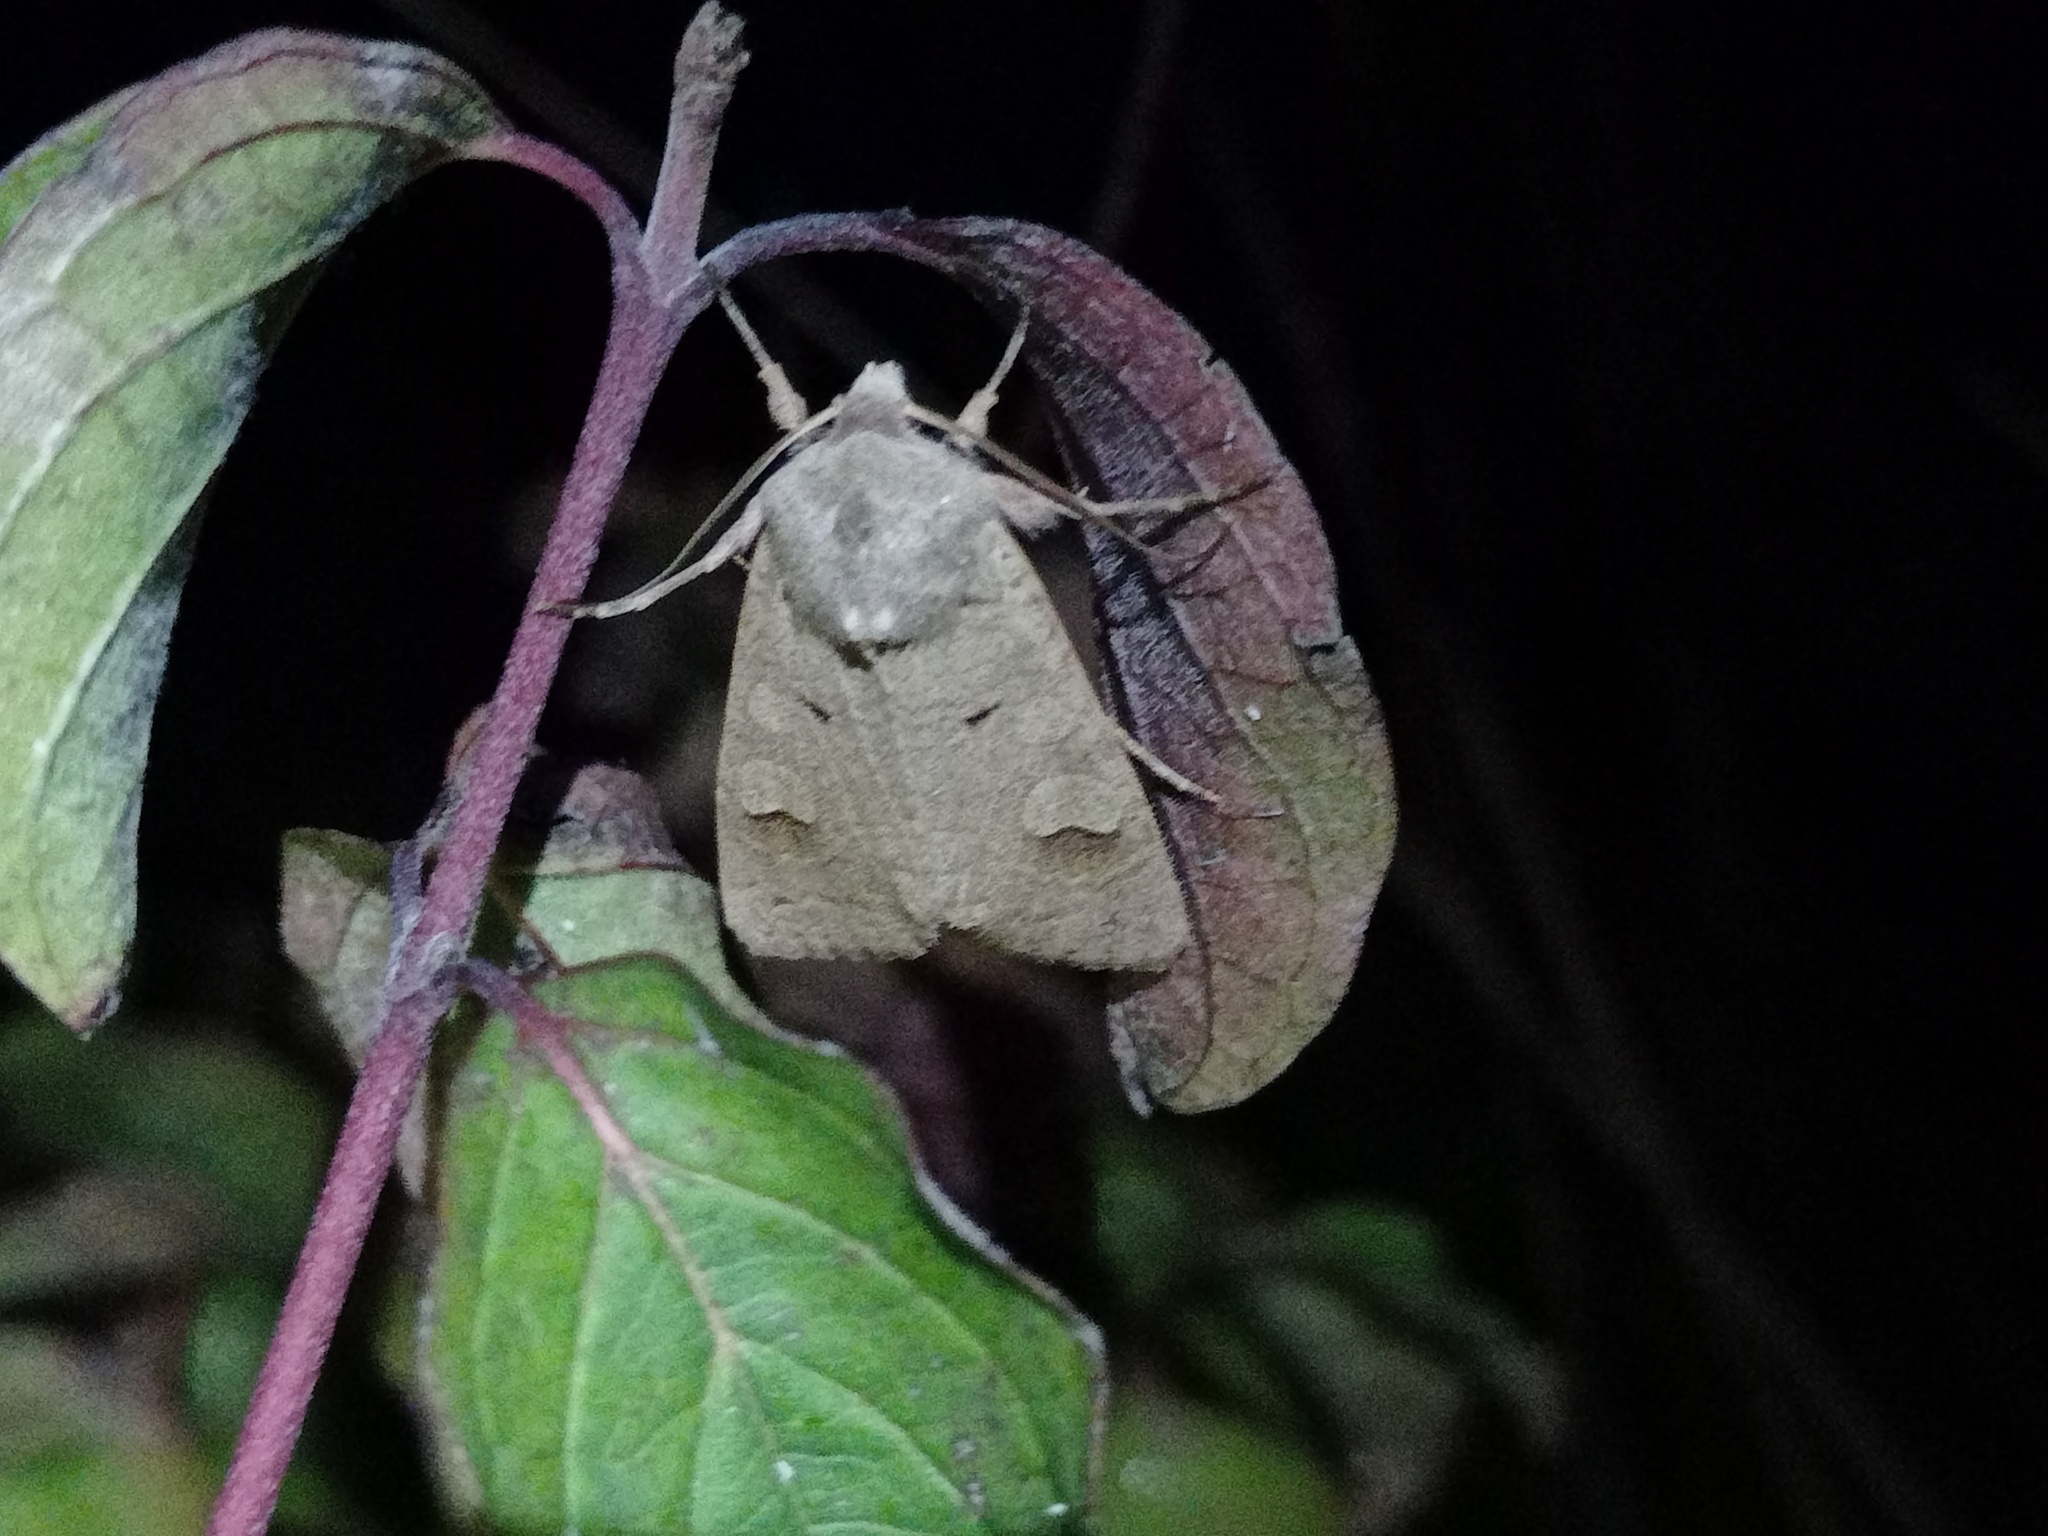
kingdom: Animalia
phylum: Arthropoda
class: Insecta
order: Lepidoptera
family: Noctuidae
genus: Ammoconia
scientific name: Ammoconia caecimacula
